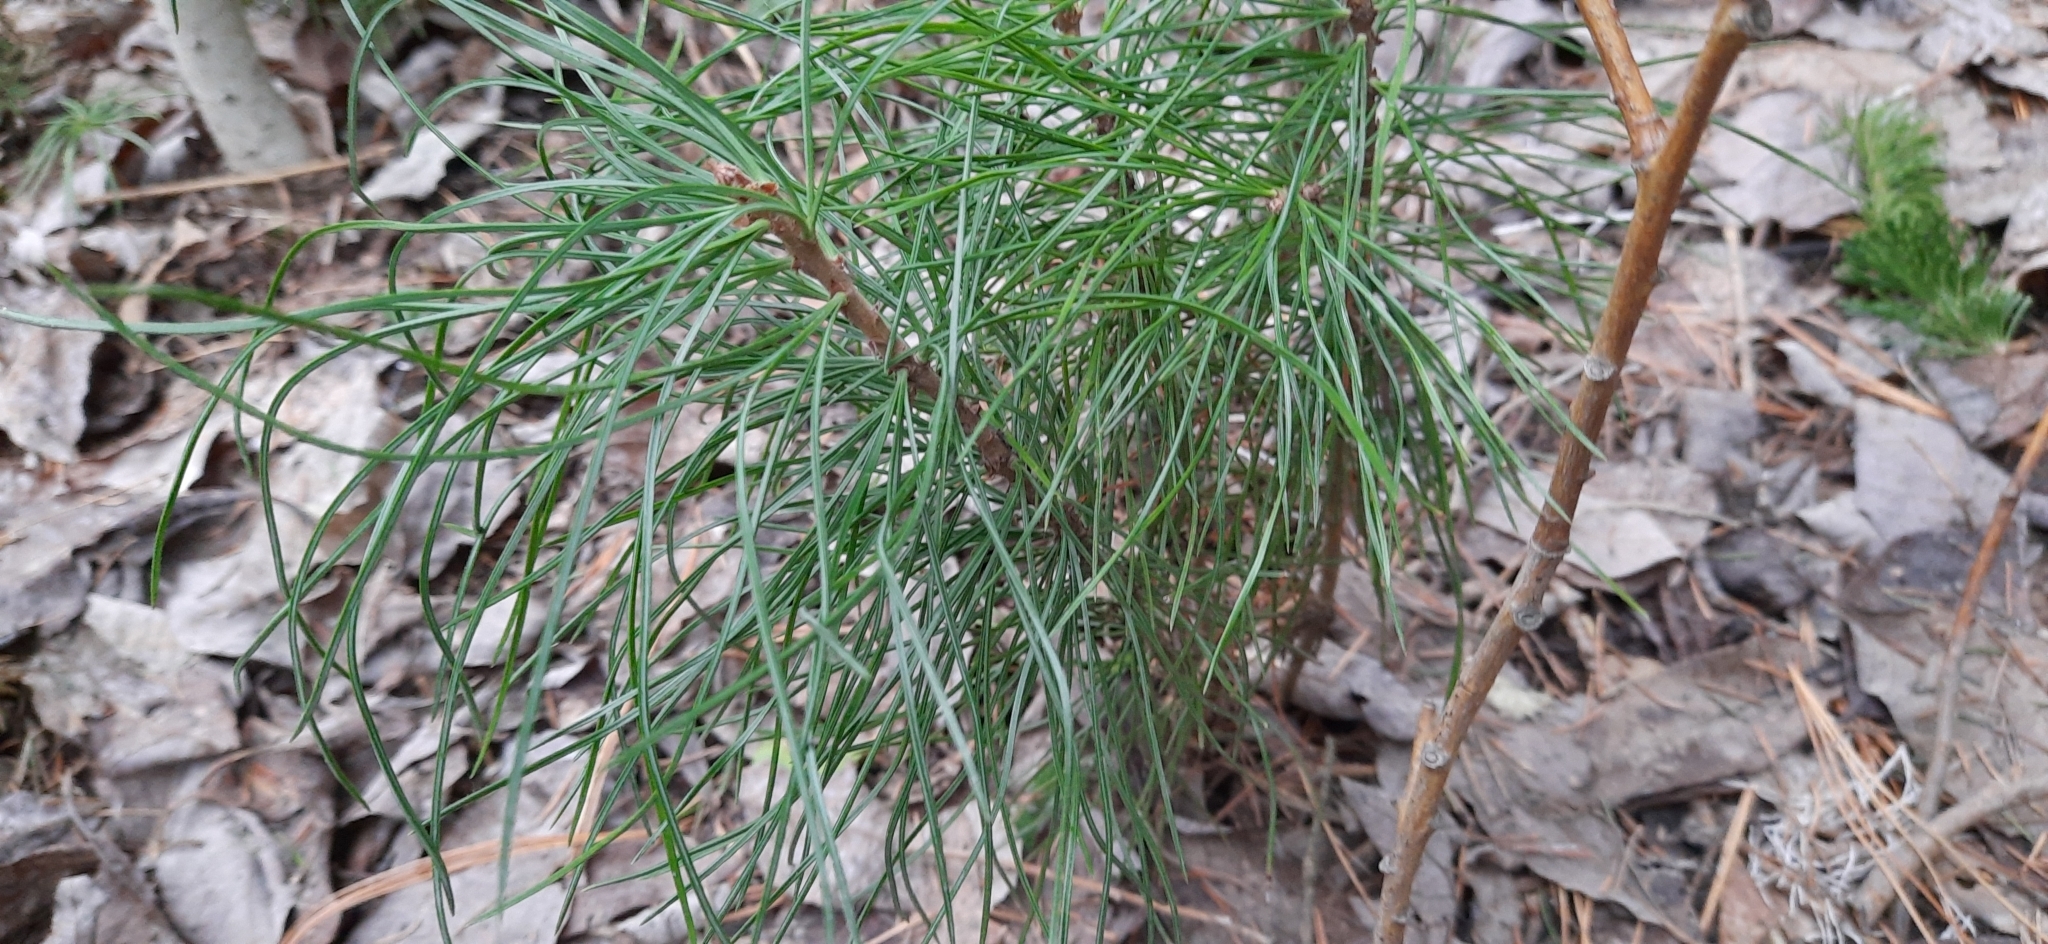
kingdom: Plantae
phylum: Tracheophyta
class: Pinopsida
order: Pinales
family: Pinaceae
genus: Pinus
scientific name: Pinus sibirica
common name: Siberian pine
